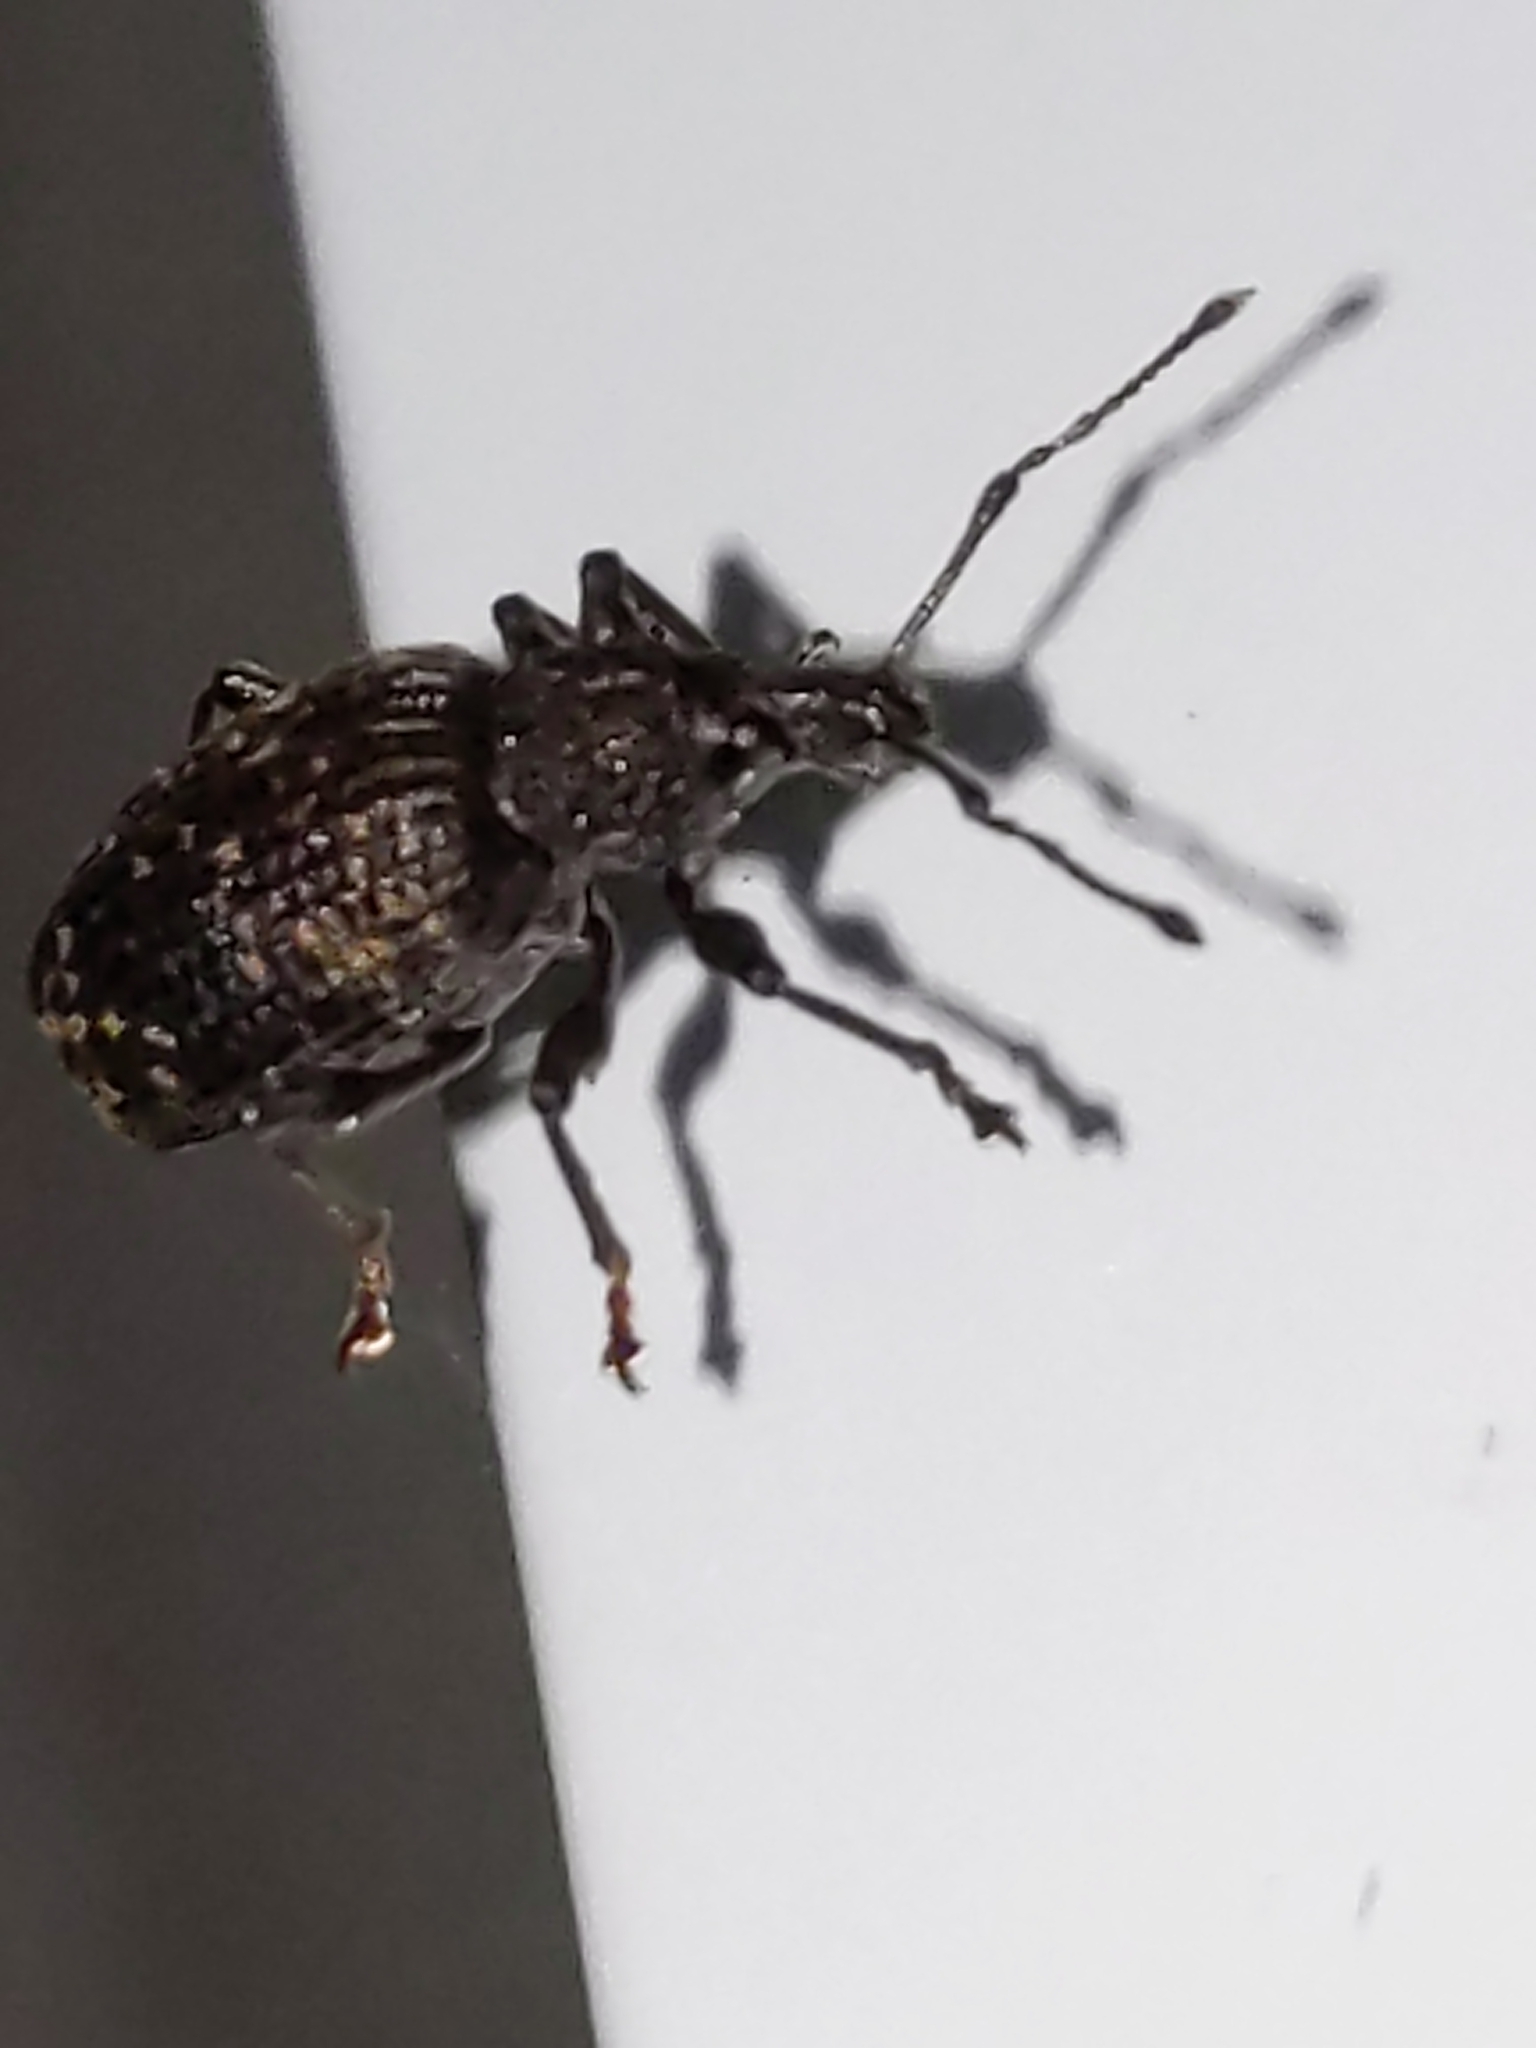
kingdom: Animalia
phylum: Arthropoda
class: Insecta
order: Coleoptera
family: Curculionidae
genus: Otiorhynchus
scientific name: Otiorhynchus sulcatus
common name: Black vine weevil
